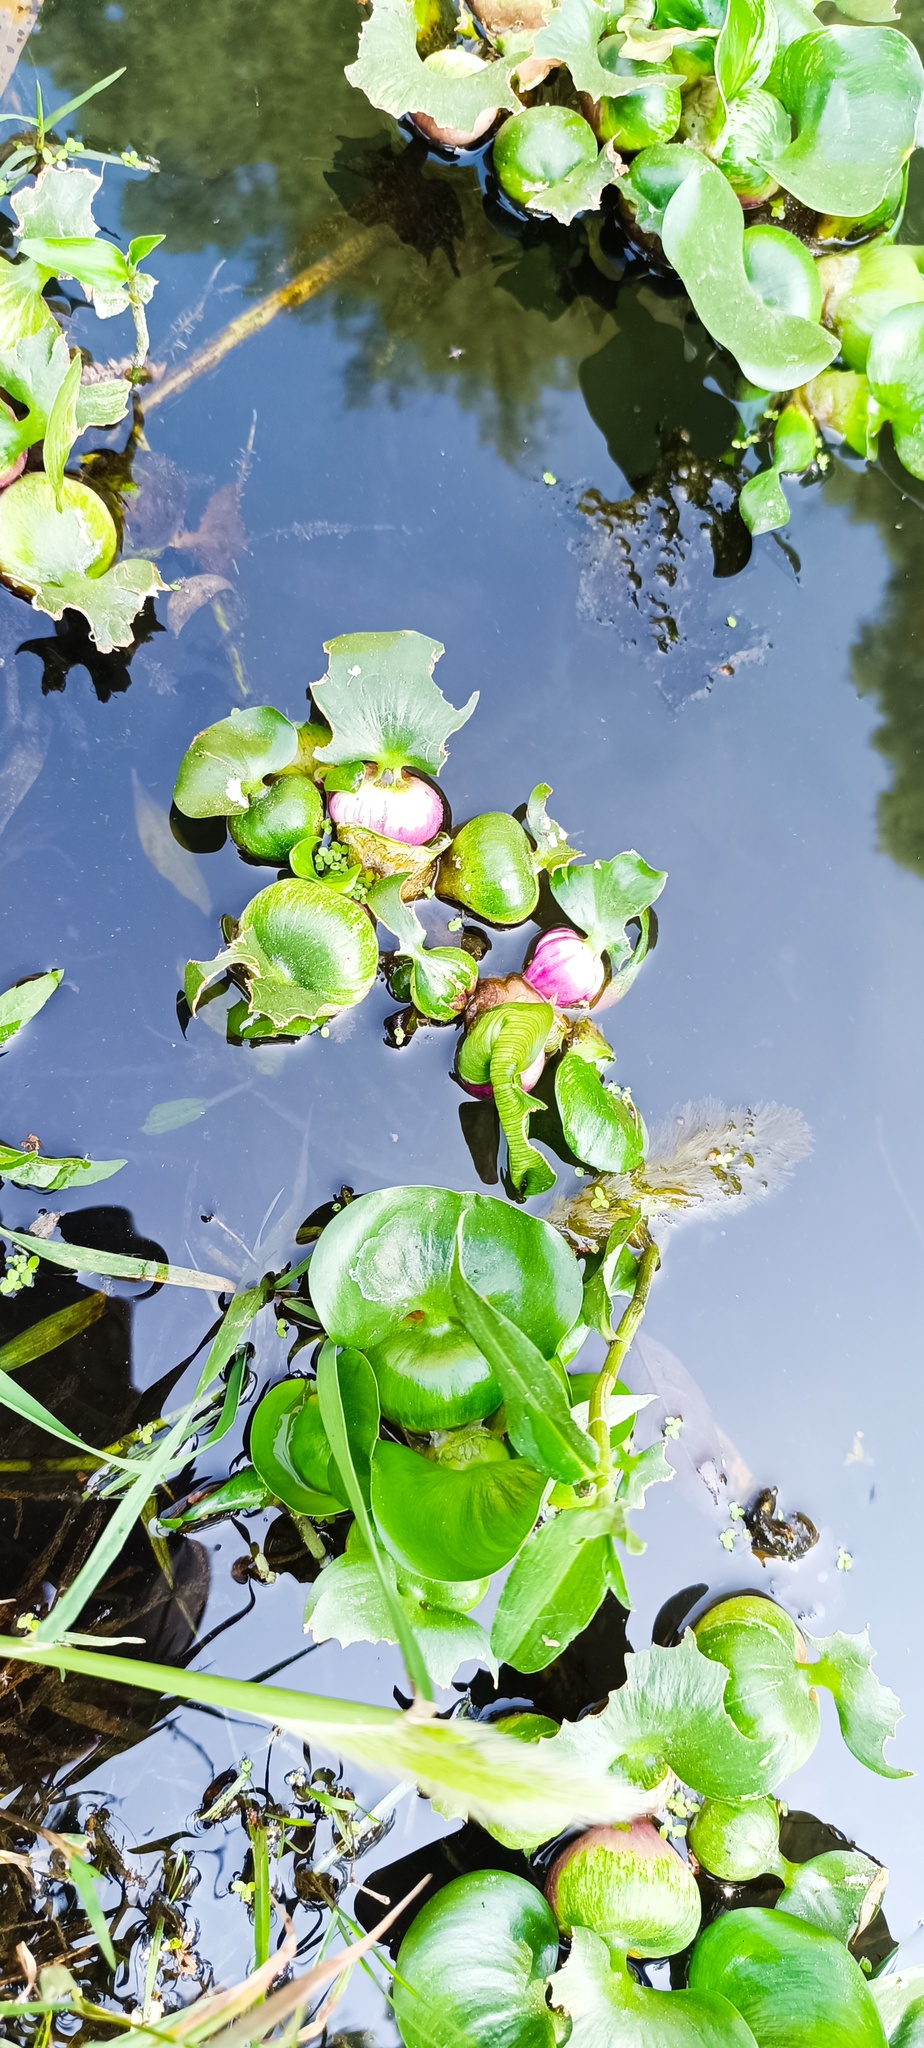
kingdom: Plantae
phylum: Tracheophyta
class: Liliopsida
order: Commelinales
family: Pontederiaceae
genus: Pontederia
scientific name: Pontederia crassipes
